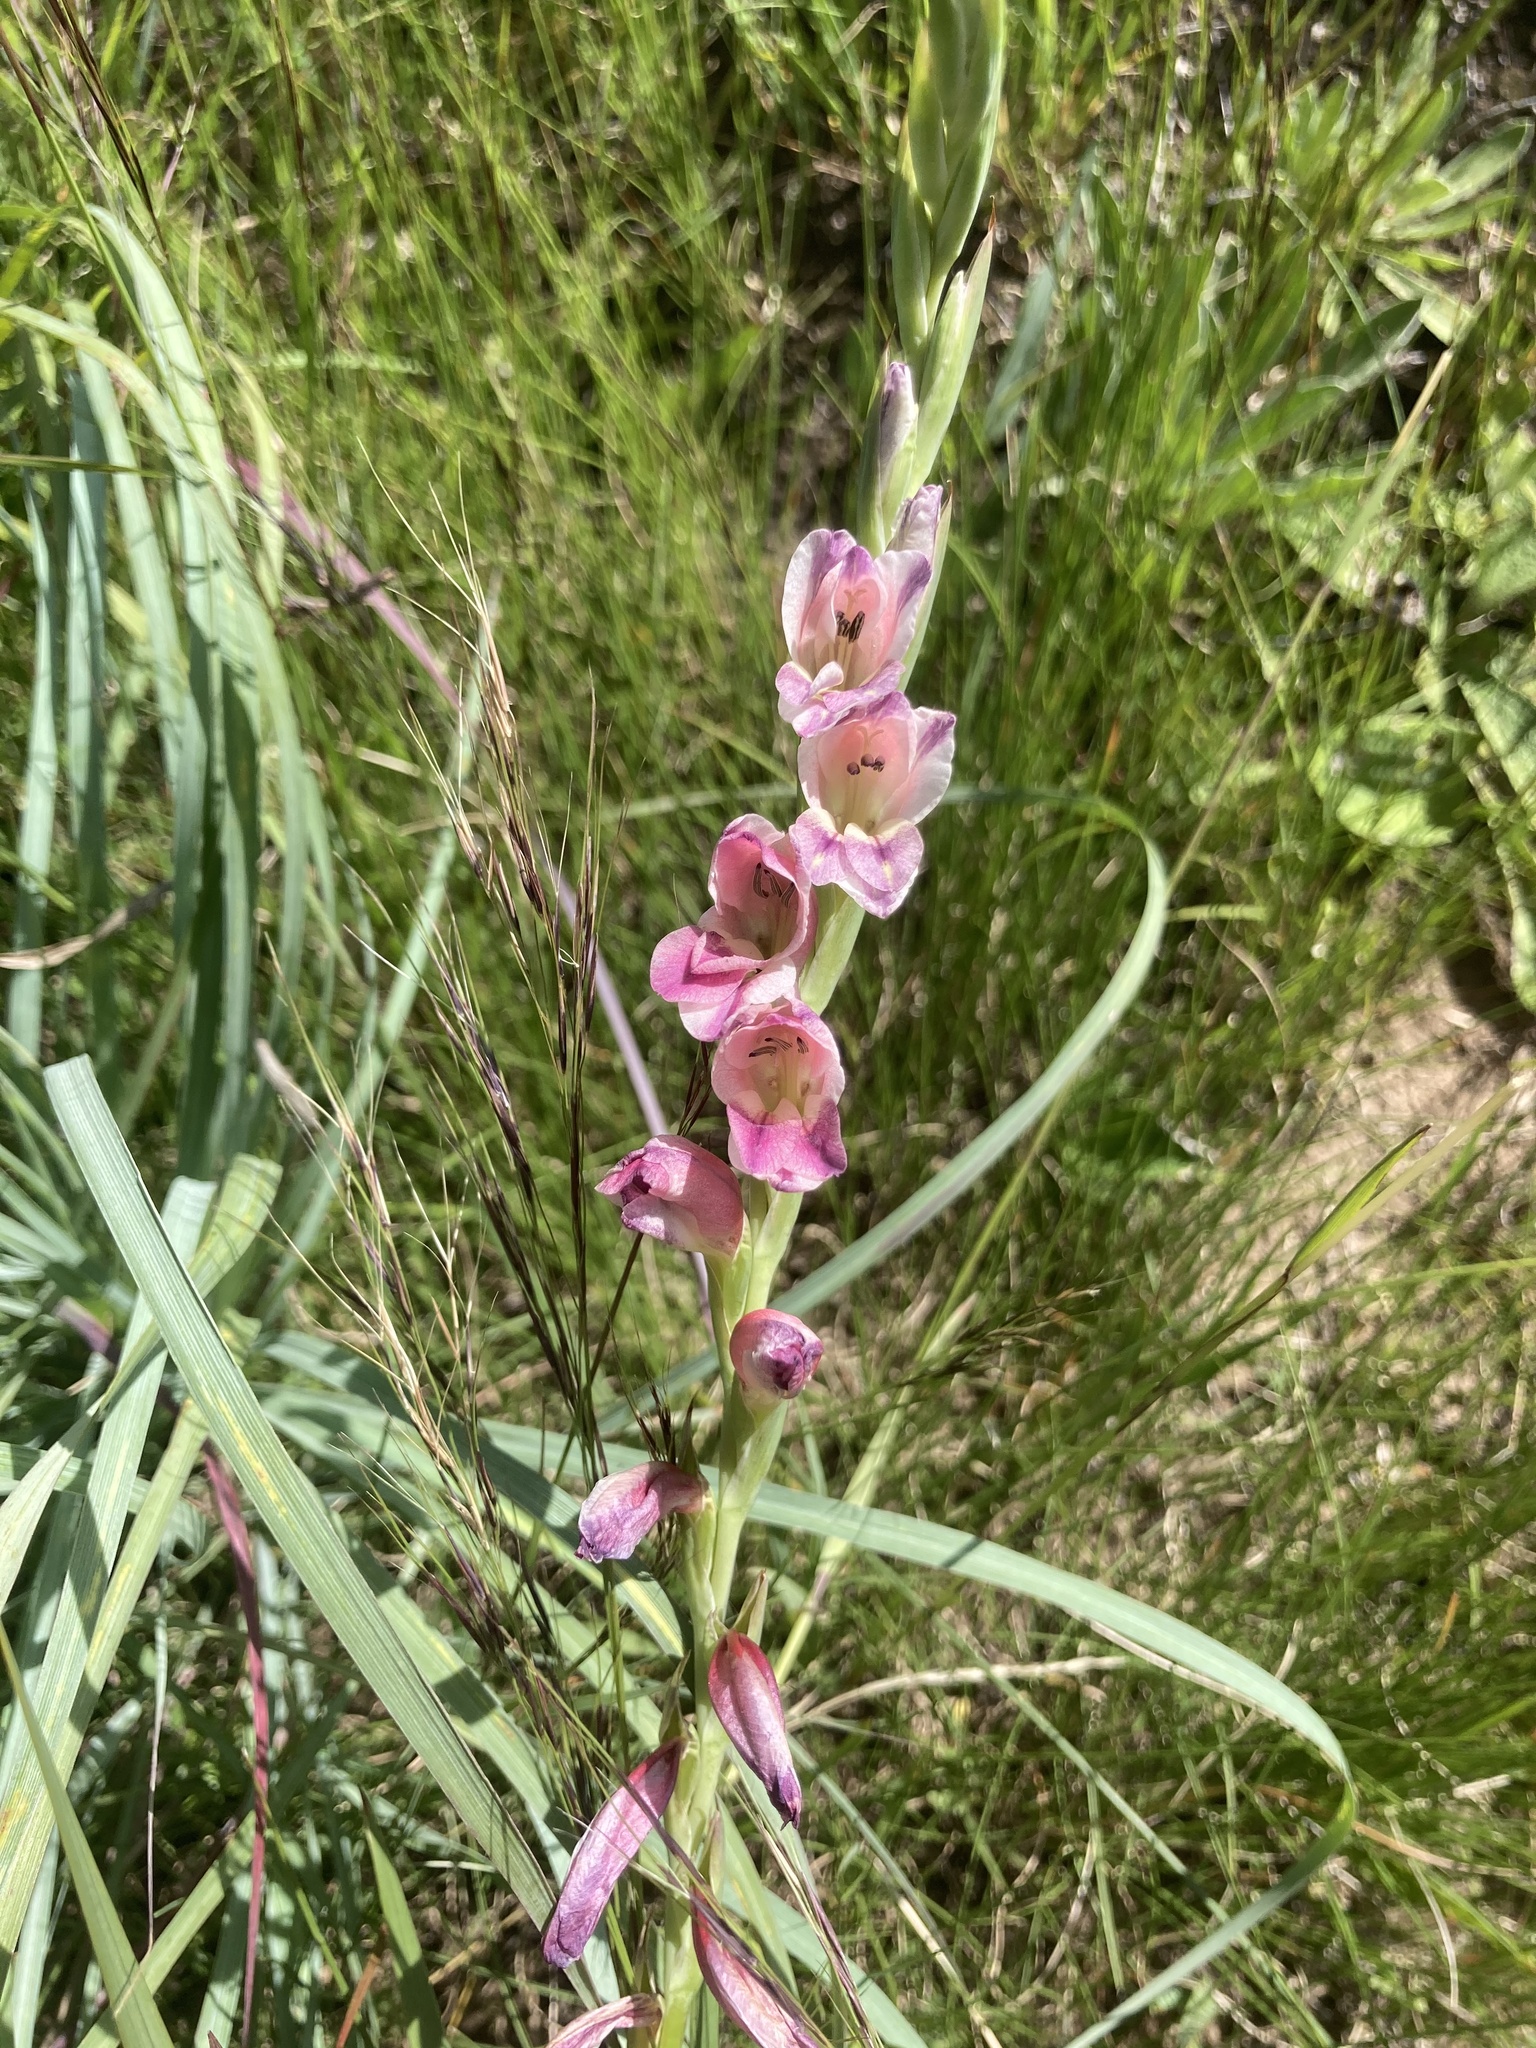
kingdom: Plantae
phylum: Tracheophyta
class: Liliopsida
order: Asparagales
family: Iridaceae
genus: Gladiolus
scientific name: Gladiolus crassifolius
